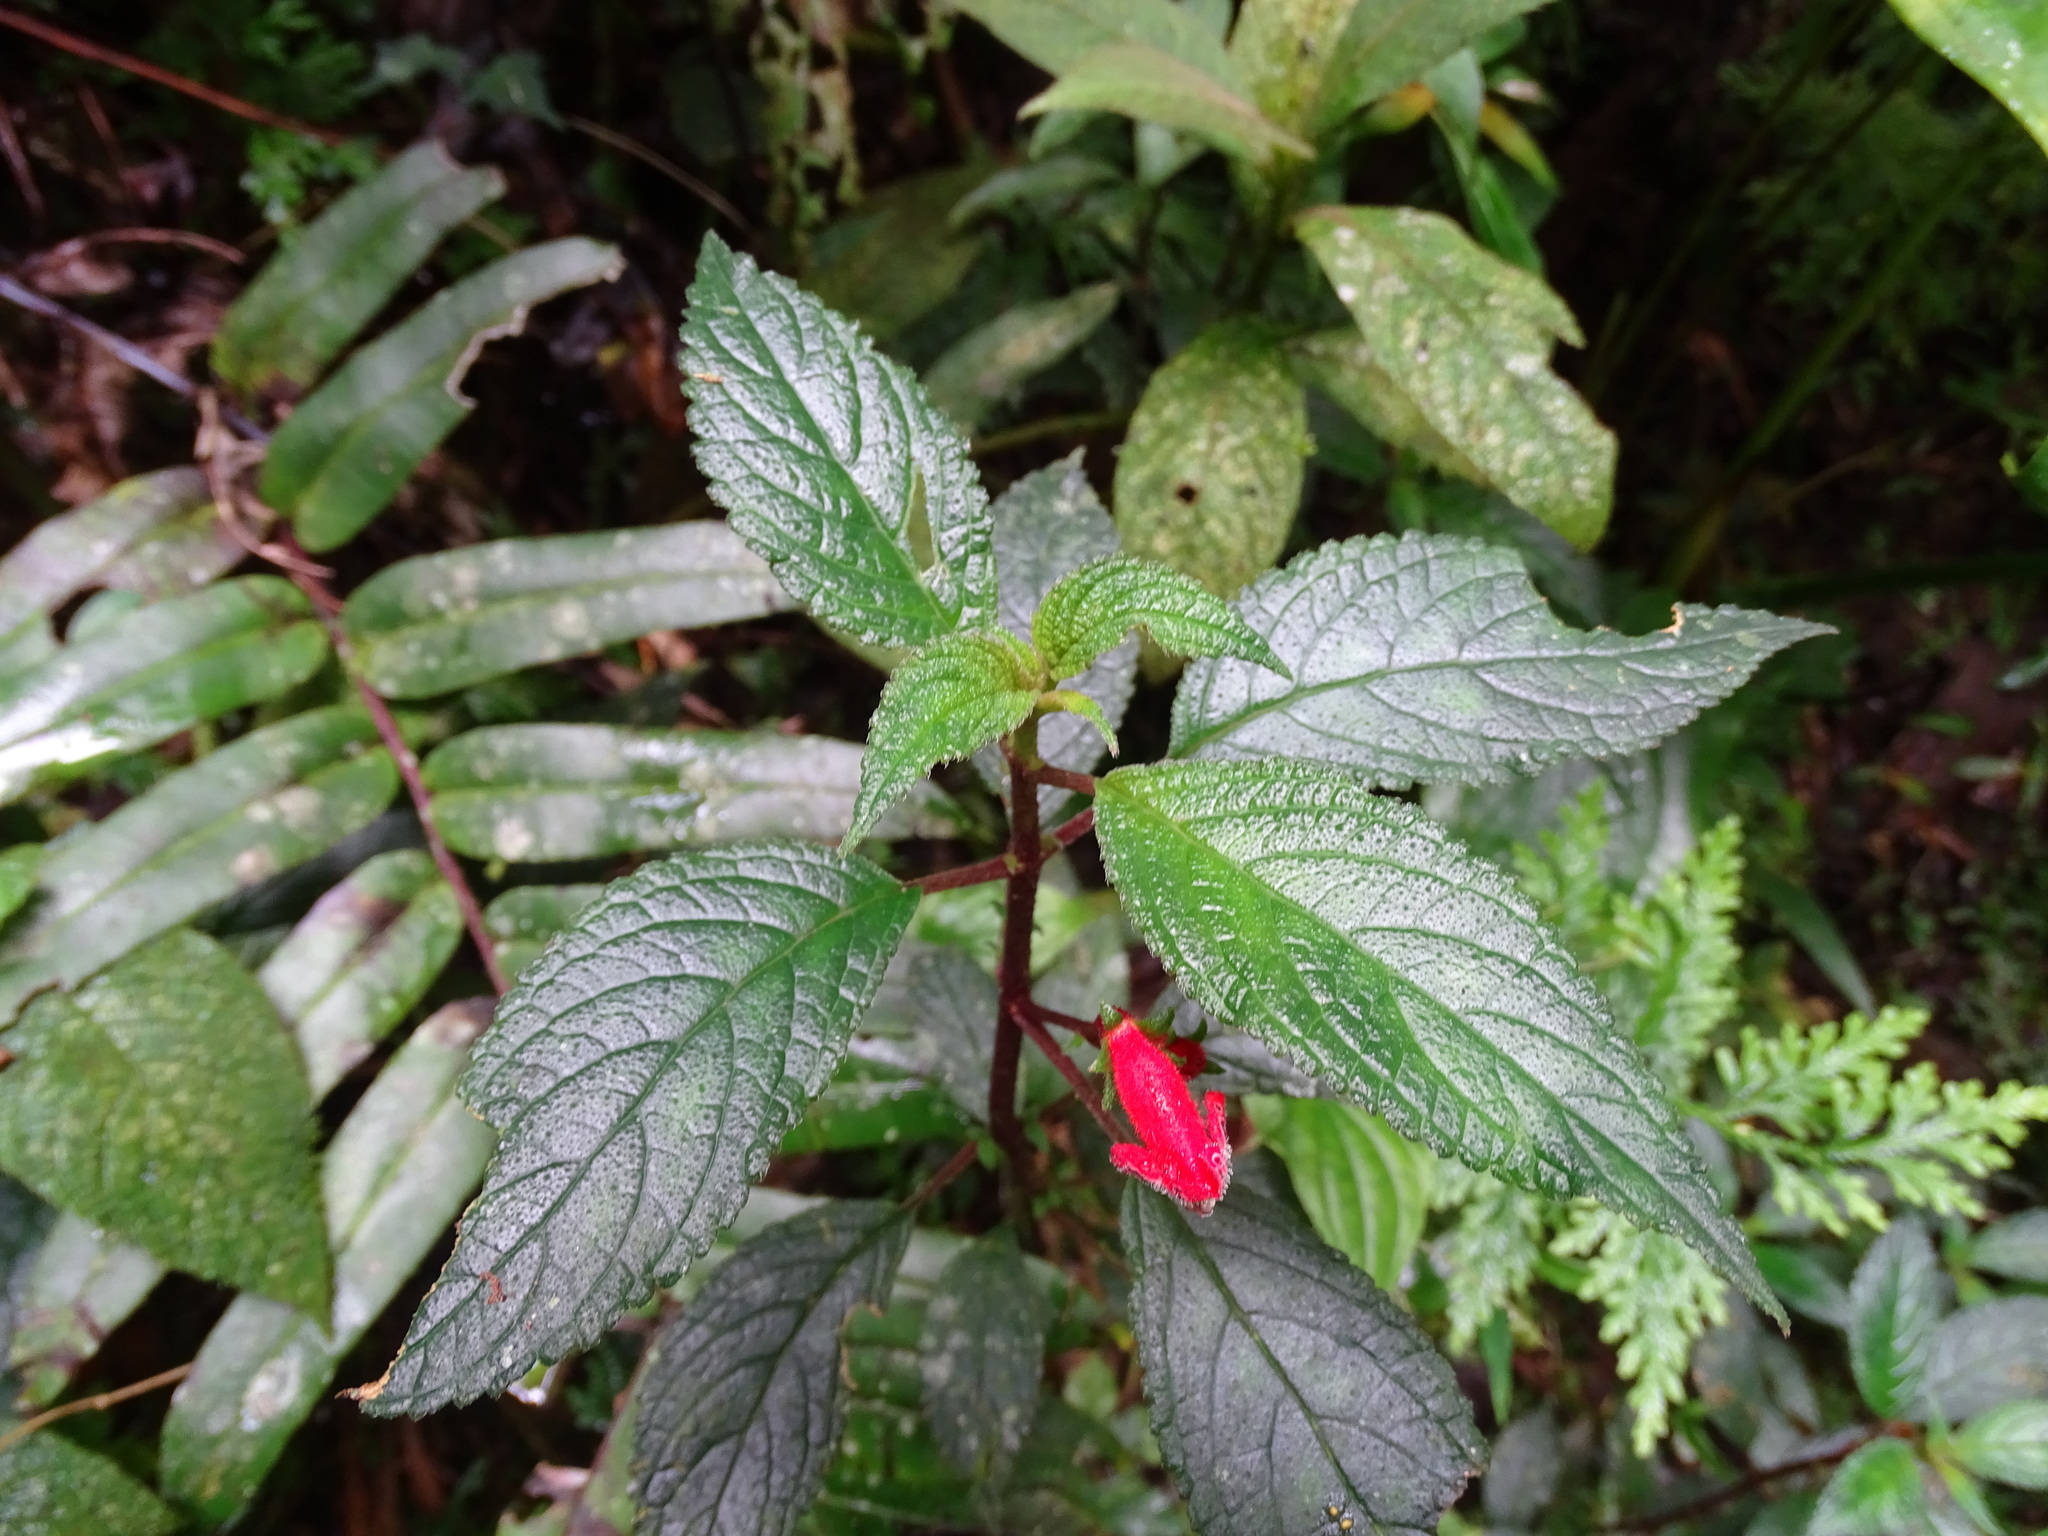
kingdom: Plantae
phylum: Tracheophyta
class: Magnoliopsida
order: Lamiales
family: Gesneriaceae
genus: Kohleria
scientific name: Kohleria inaequalis
